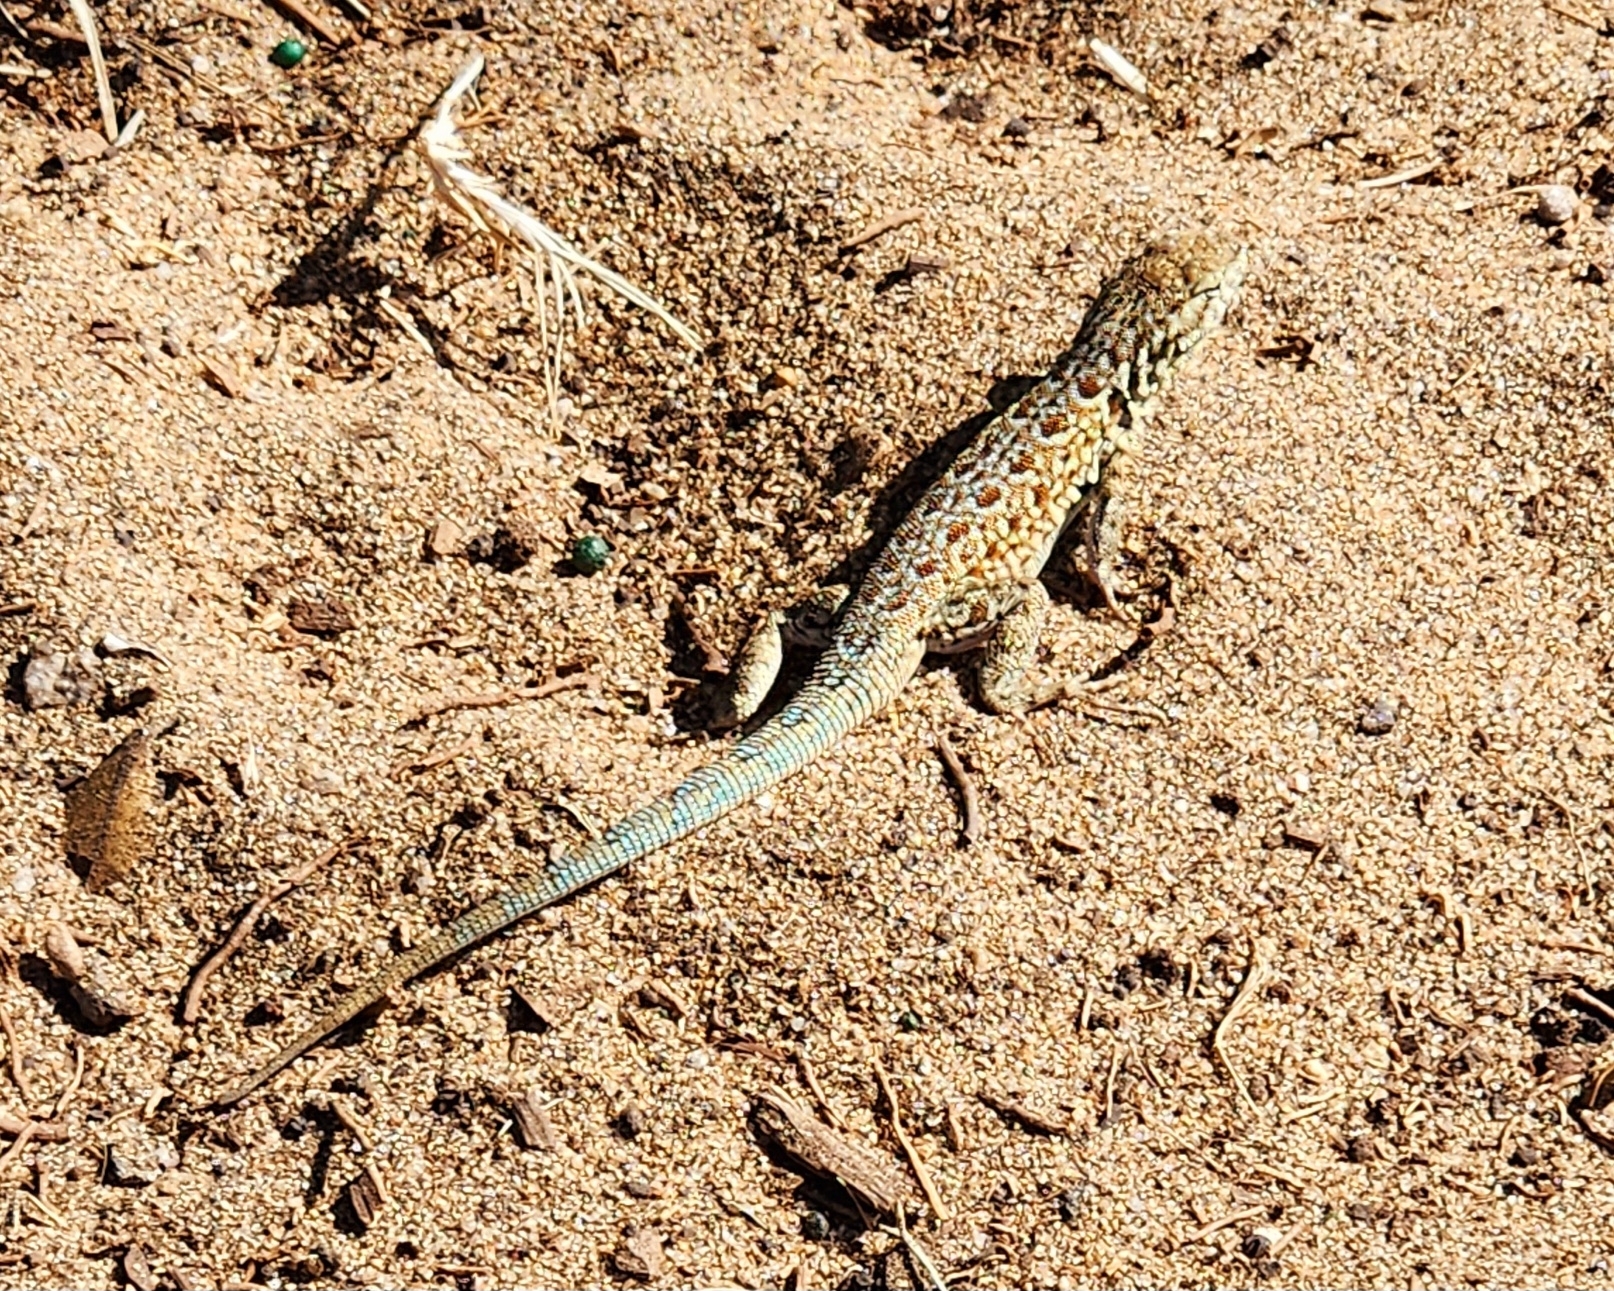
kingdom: Animalia
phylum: Chordata
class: Squamata
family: Phrynosomatidae
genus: Uta
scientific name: Uta stansburiana
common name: Side-blotched lizard
